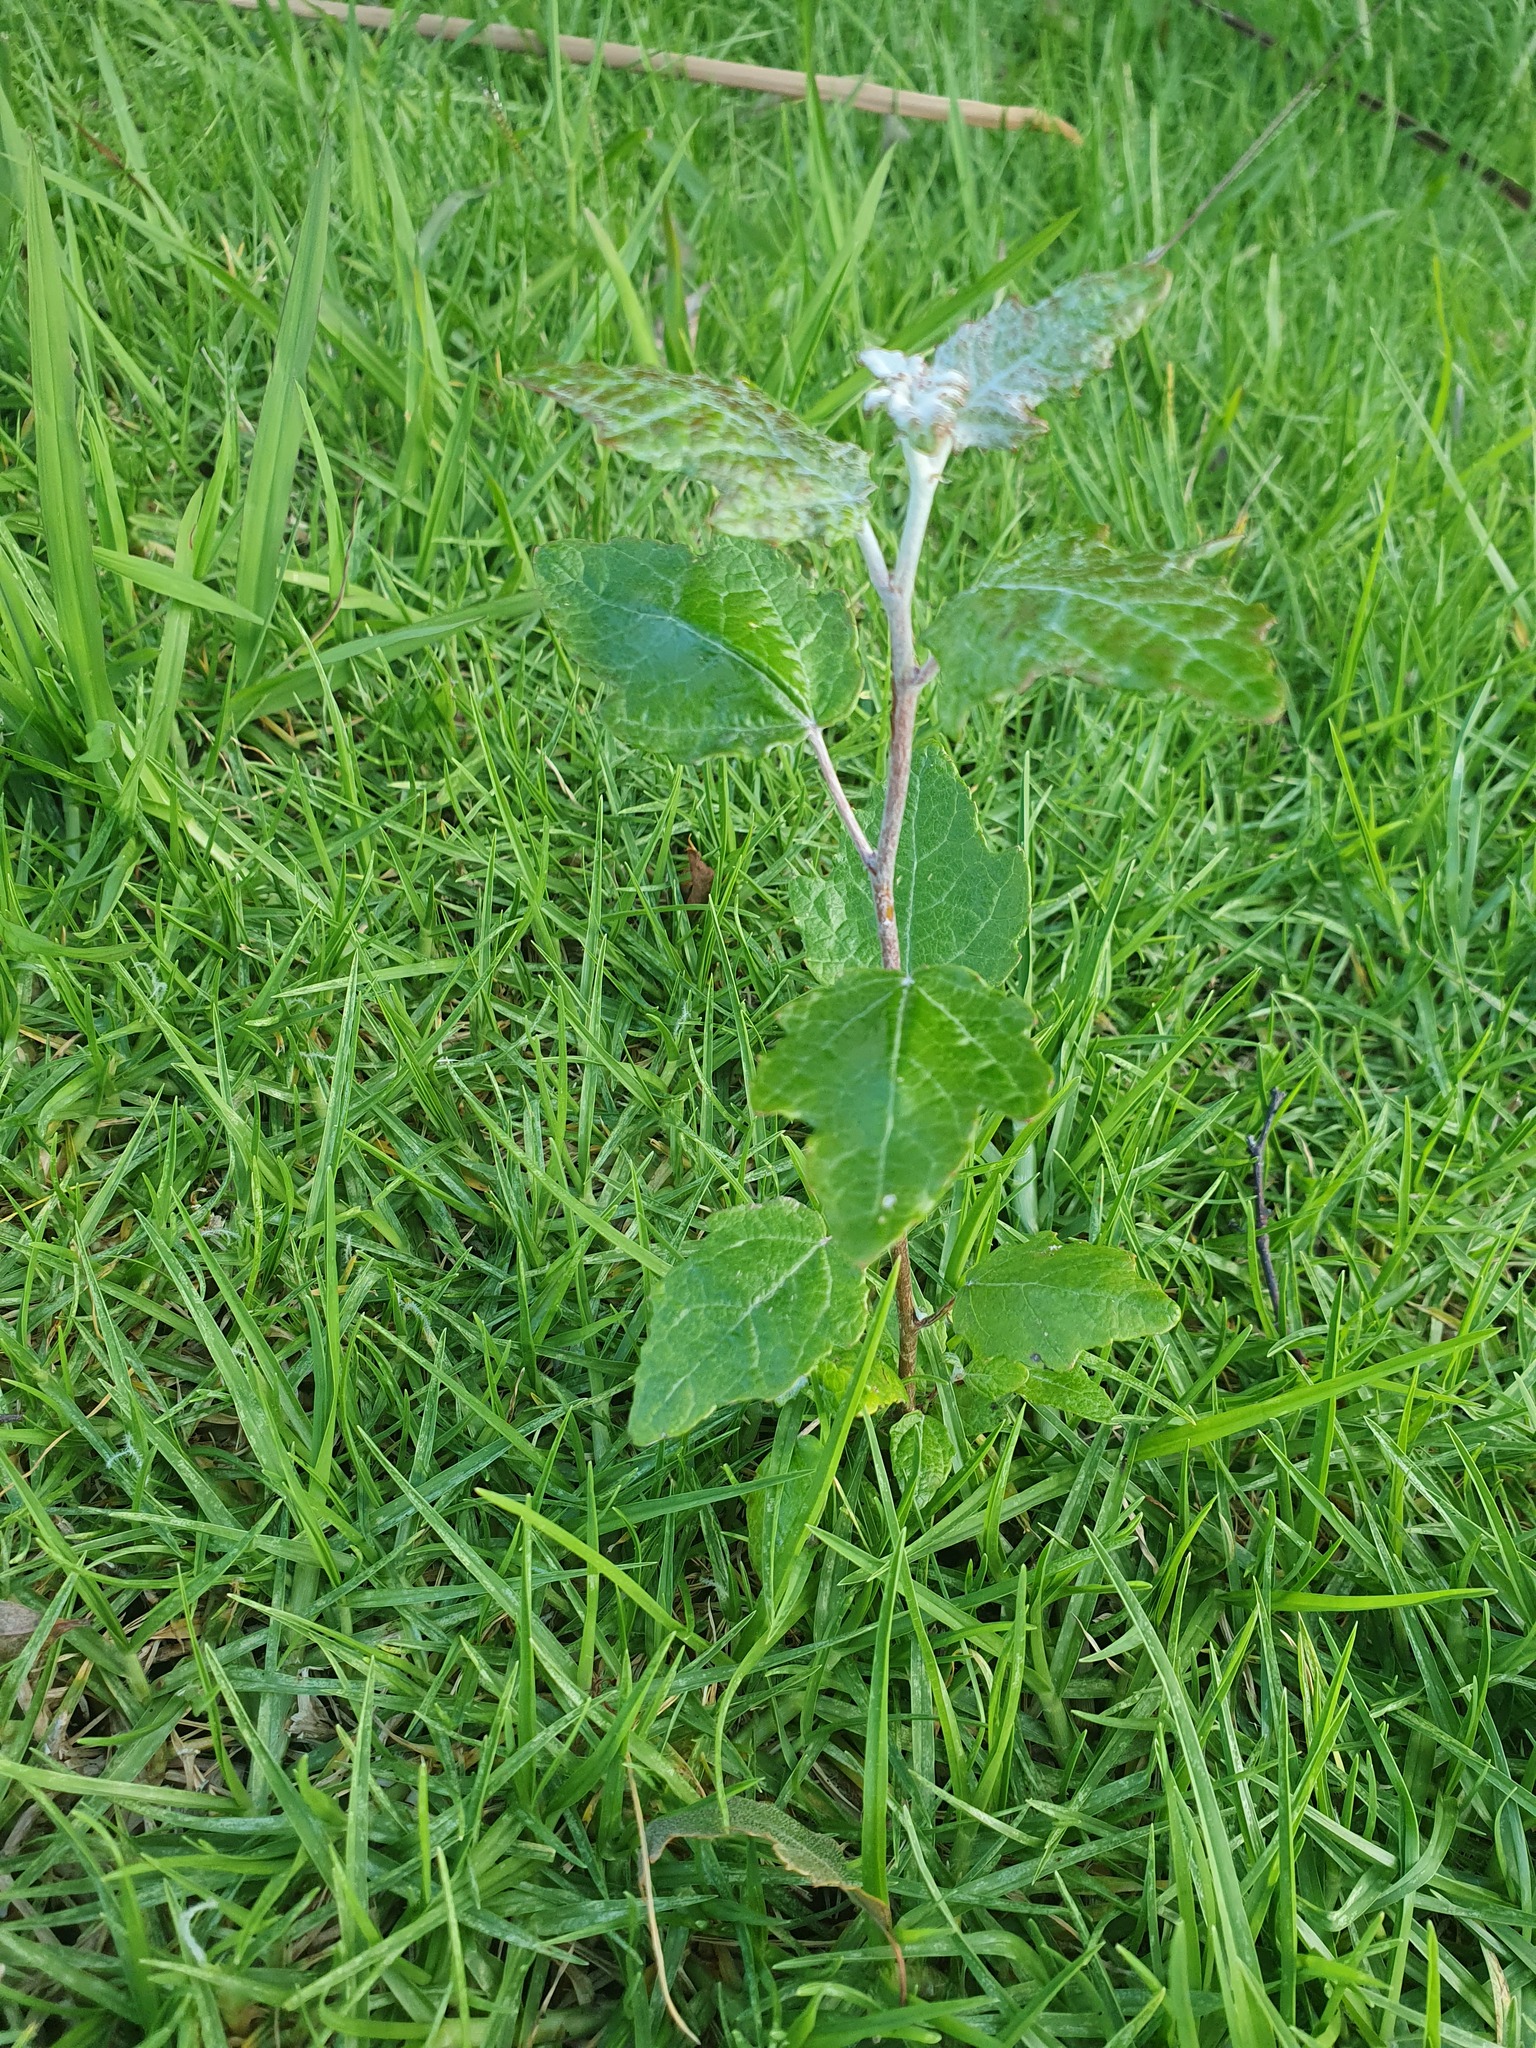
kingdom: Plantae
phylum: Tracheophyta
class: Magnoliopsida
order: Malpighiales
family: Salicaceae
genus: Populus
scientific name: Populus alba
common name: White poplar
